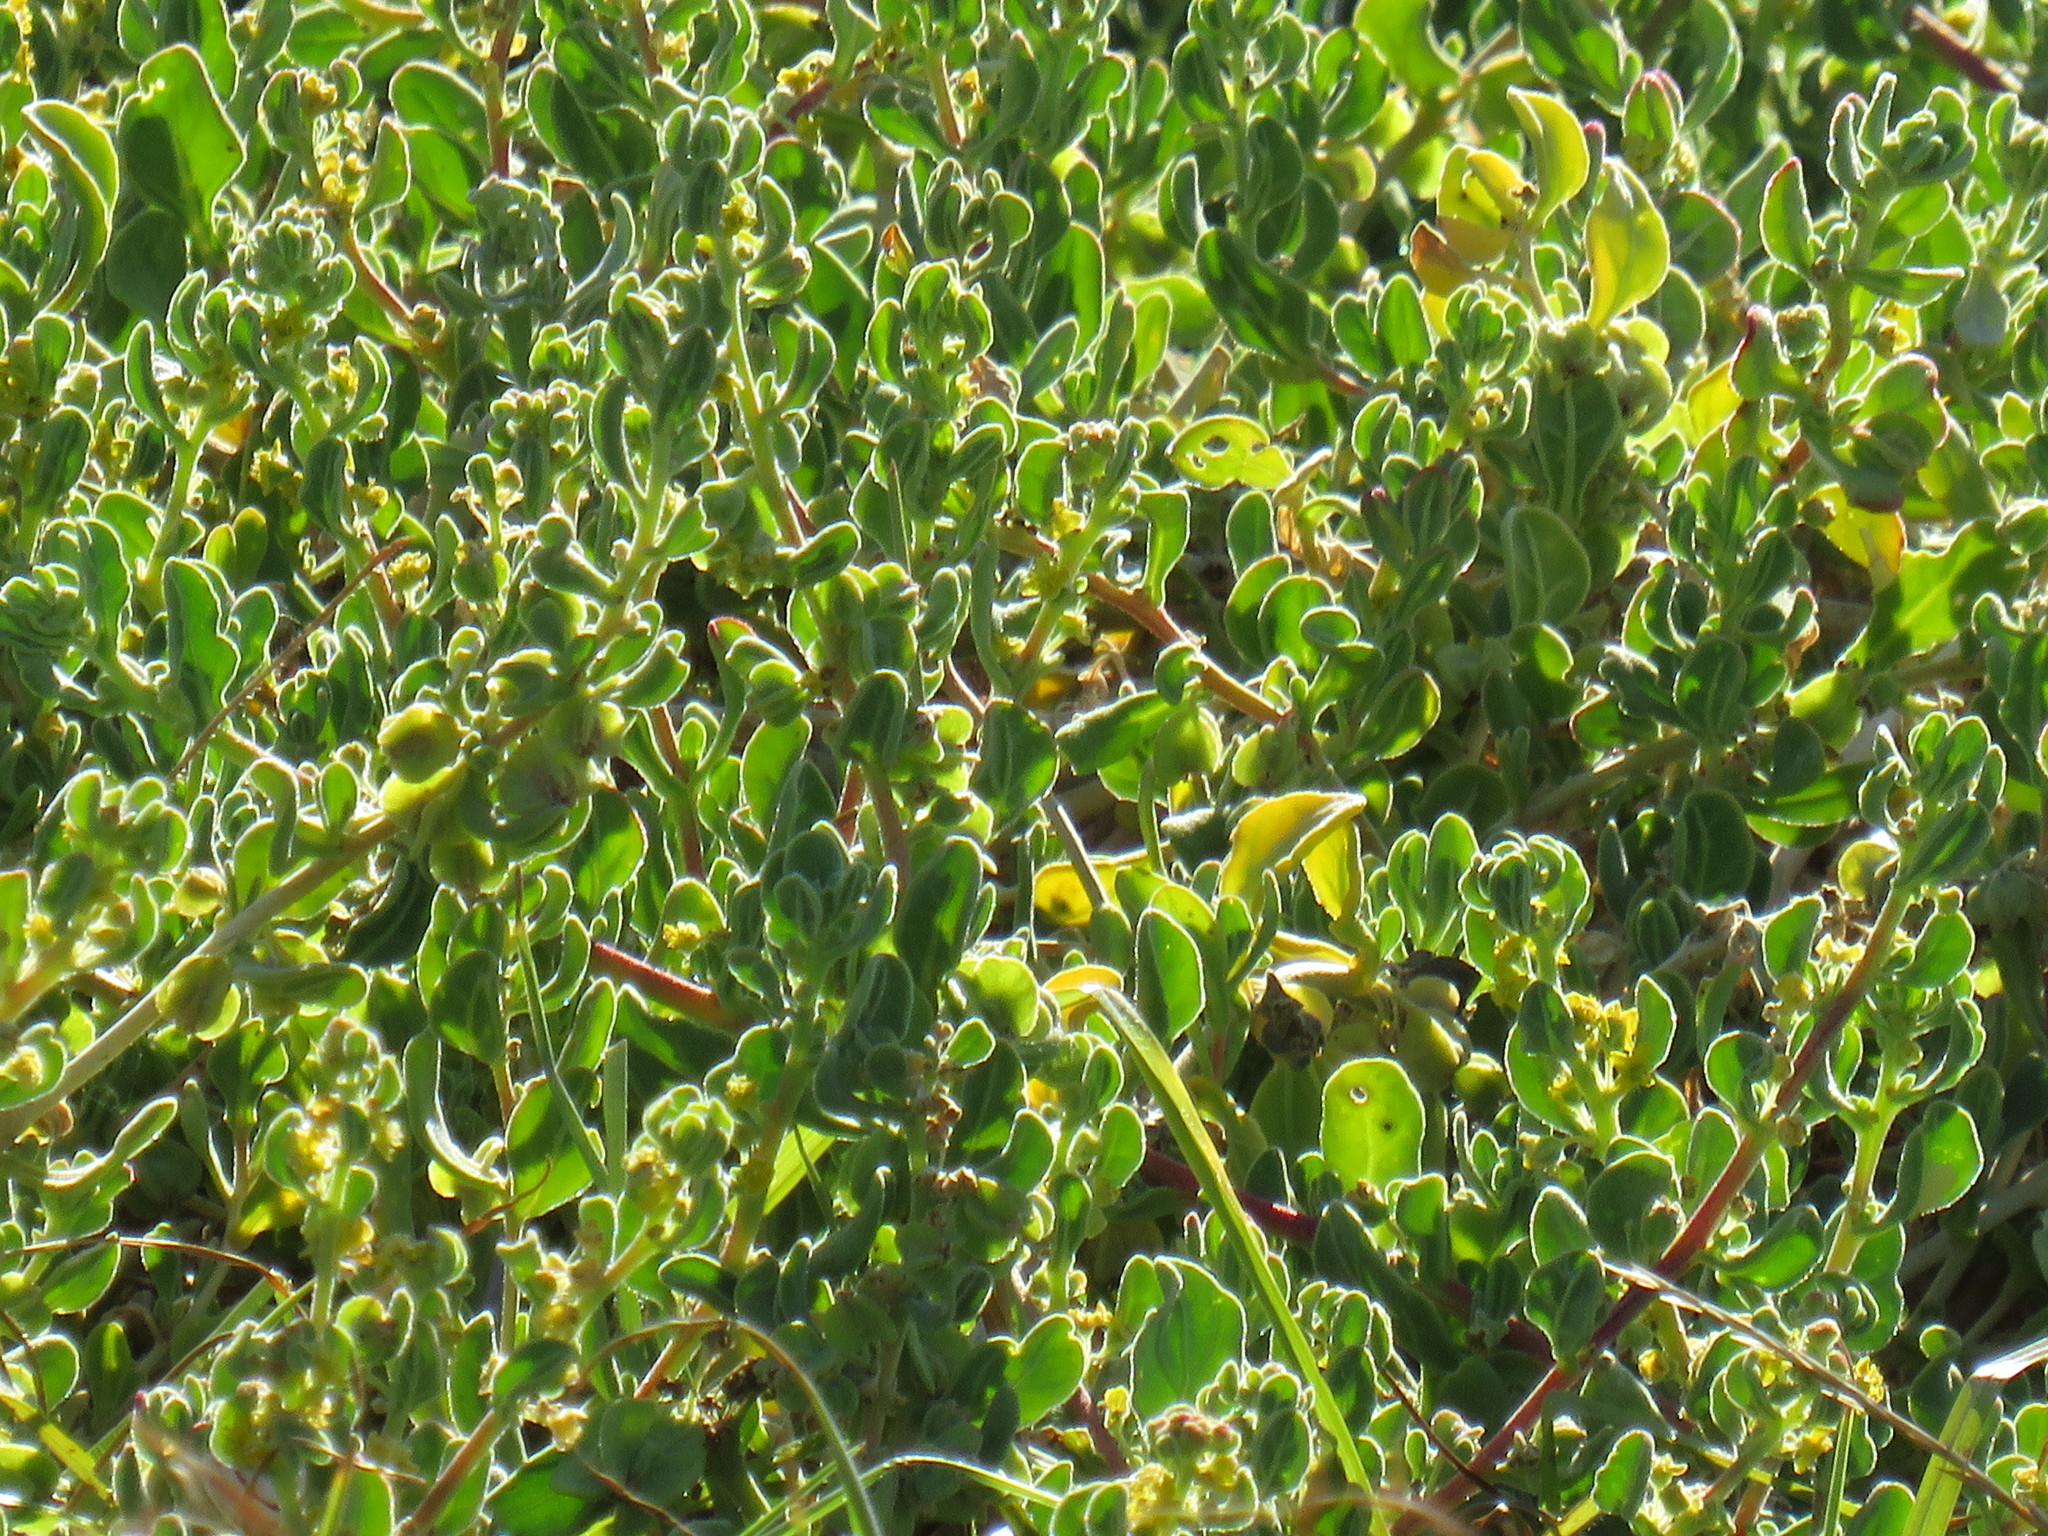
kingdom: Plantae
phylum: Tracheophyta
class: Magnoliopsida
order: Caryophyllales
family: Aizoaceae
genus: Tetragonia
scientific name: Tetragonia decumbens
